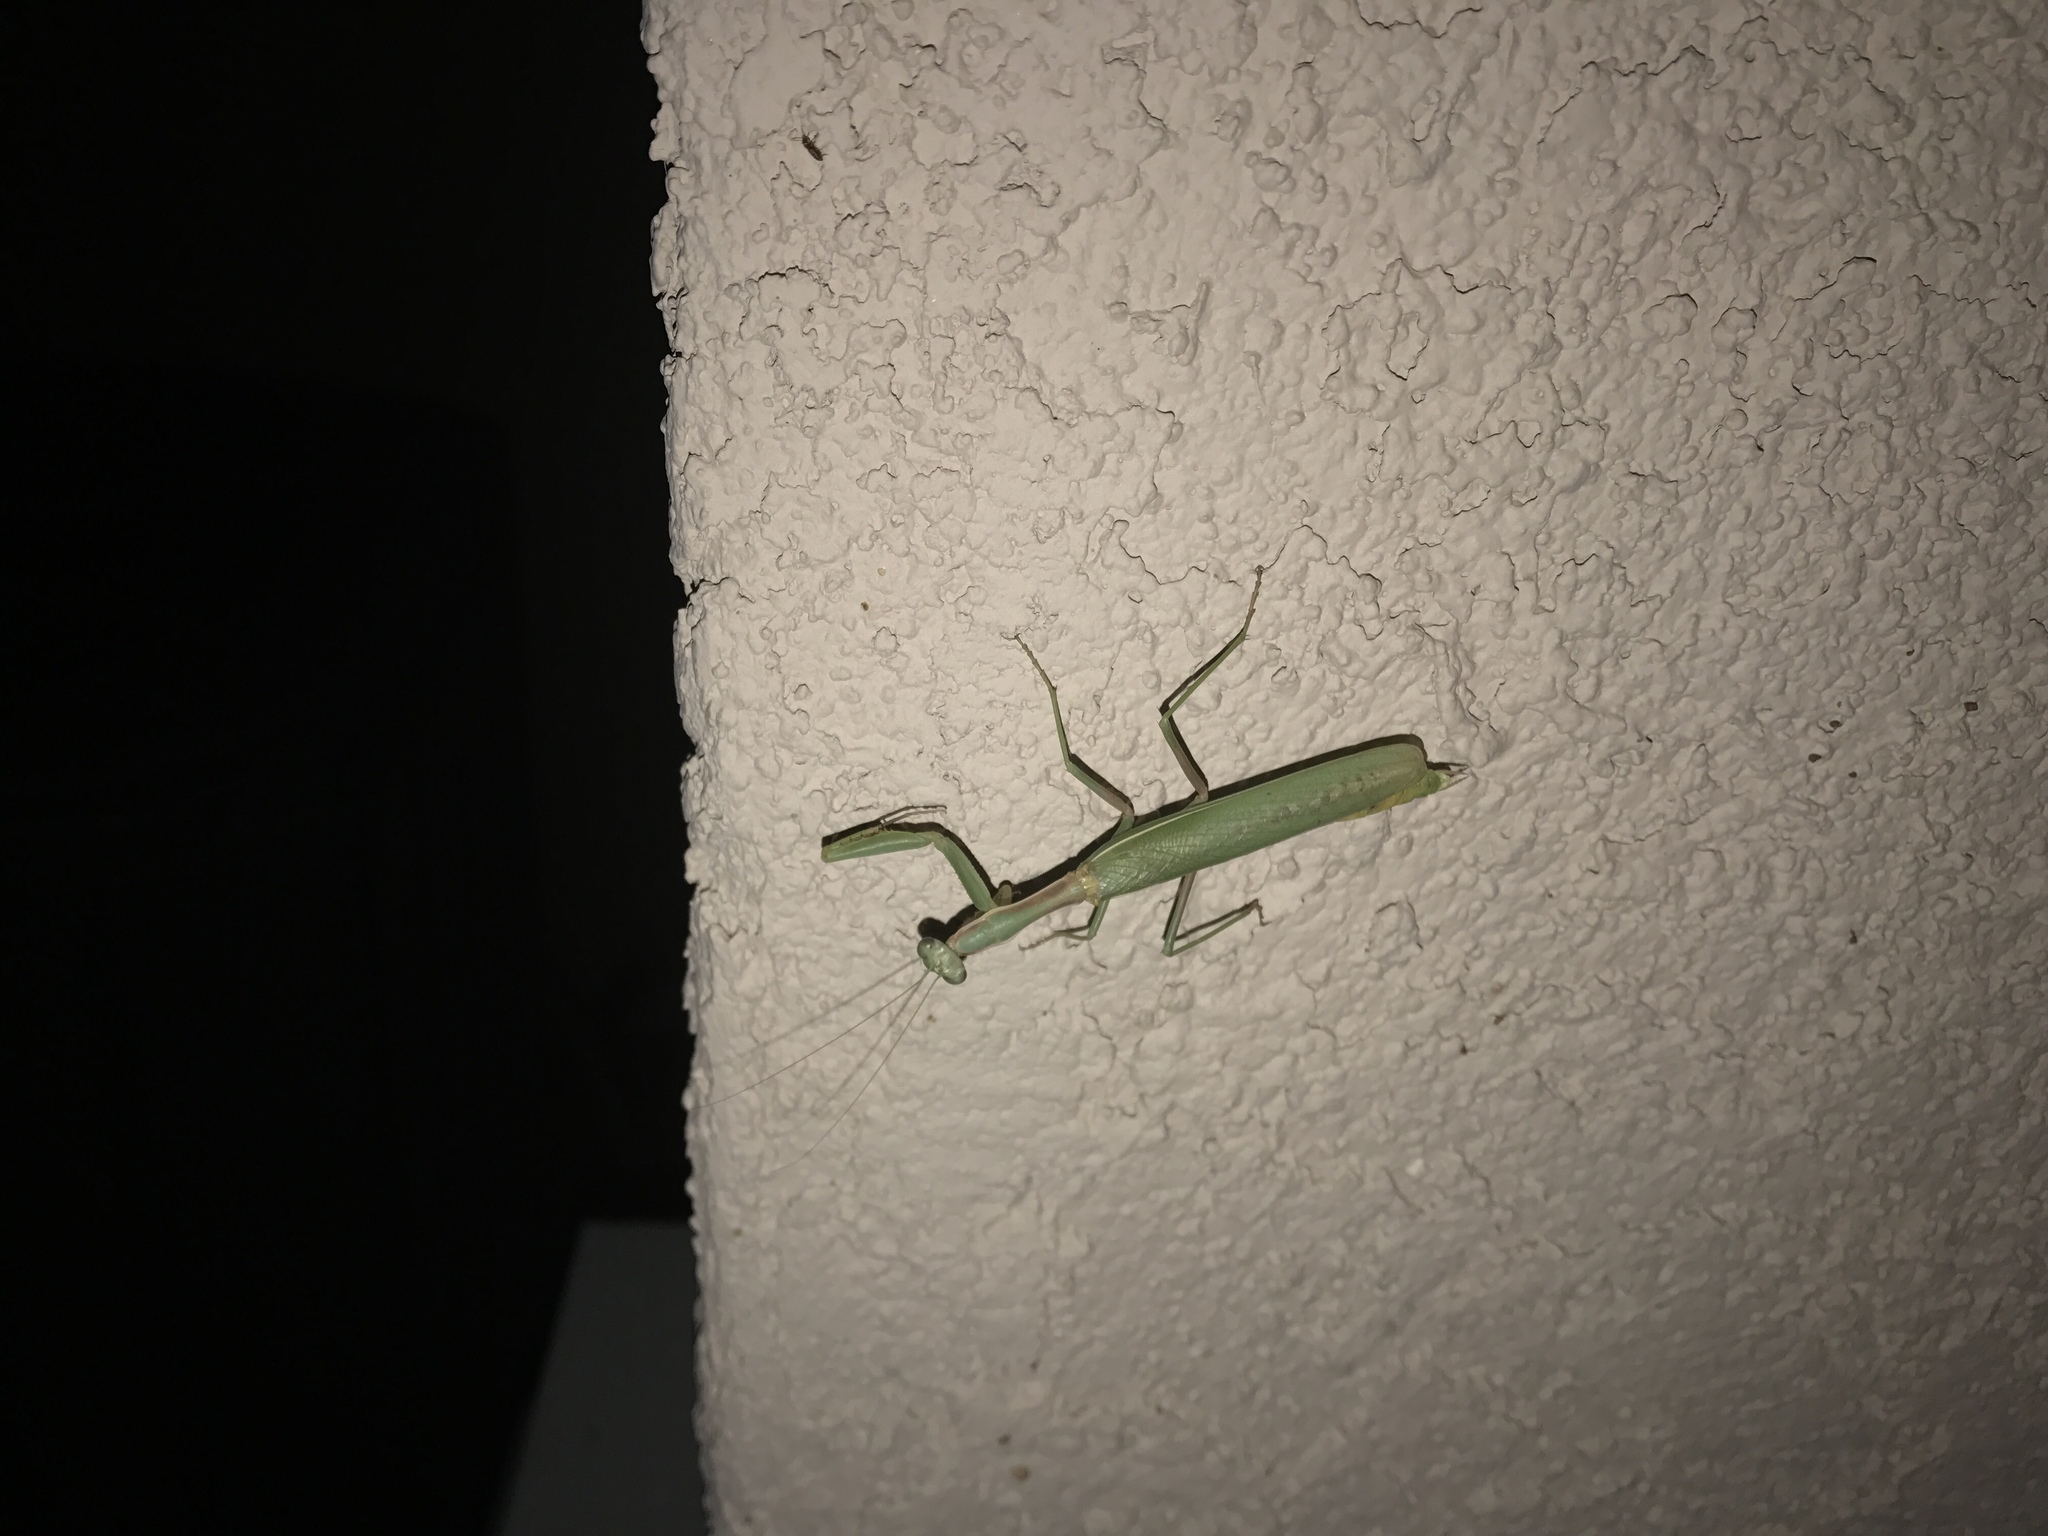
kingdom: Animalia
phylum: Arthropoda
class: Insecta
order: Mantodea
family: Eremiaphilidae
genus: Iris
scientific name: Iris oratoria
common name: Mediterranean mantis
